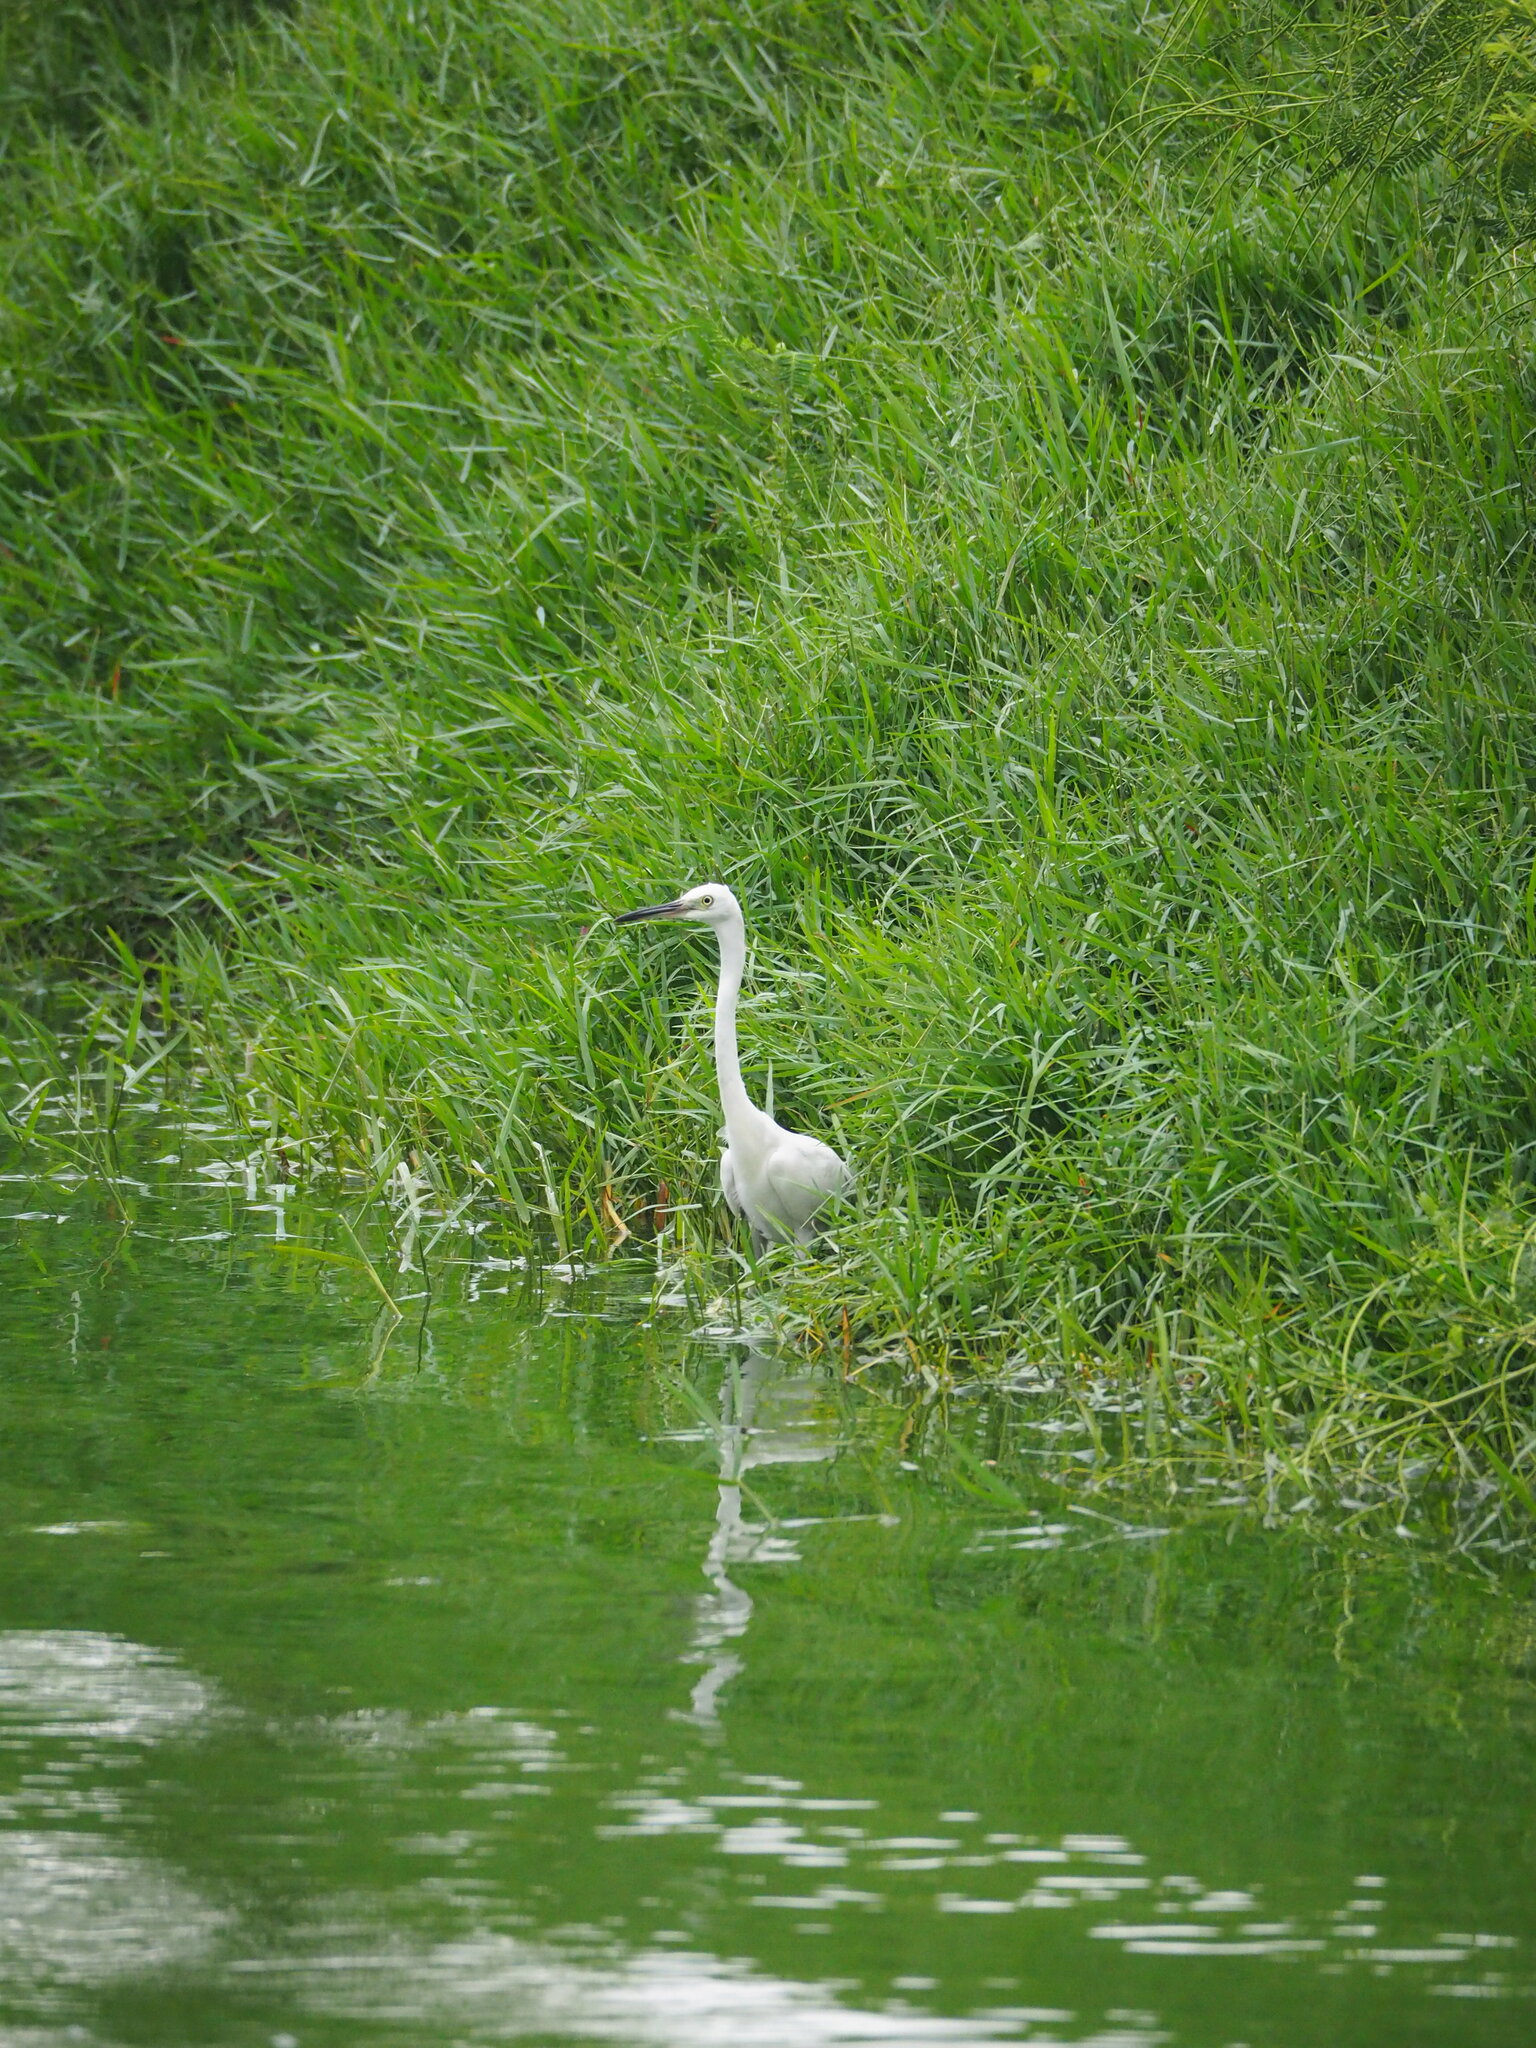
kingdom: Animalia
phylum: Chordata
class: Aves
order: Pelecaniformes
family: Ardeidae
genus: Egretta
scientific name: Egretta garzetta
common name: Little egret
